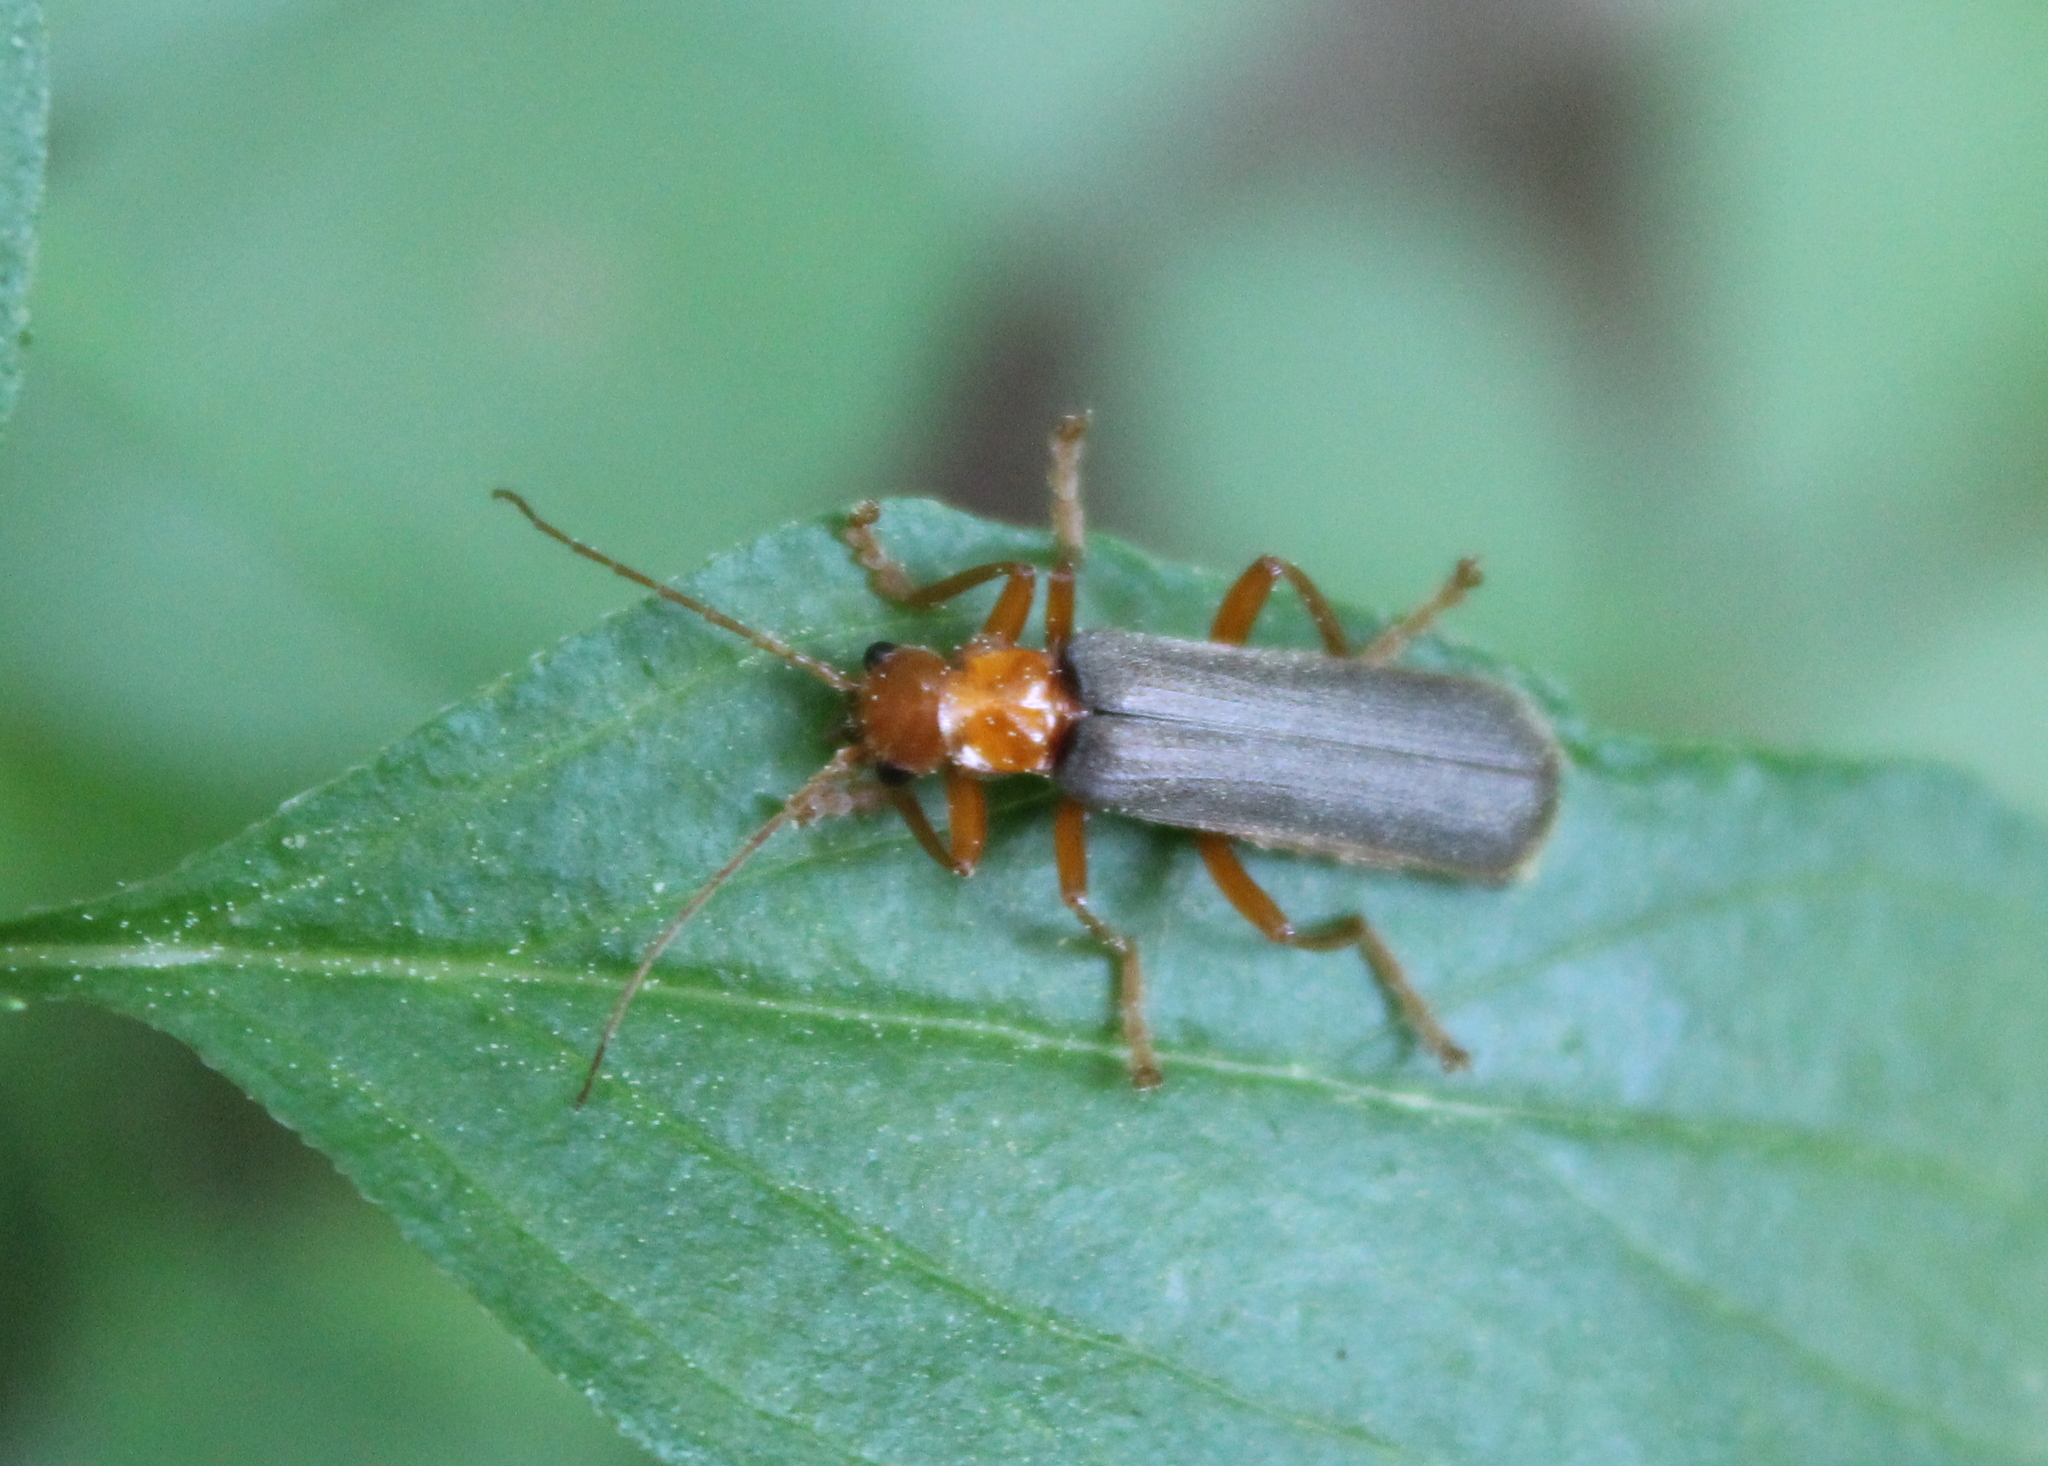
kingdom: Animalia
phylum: Arthropoda
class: Insecta
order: Coleoptera
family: Cantharidae
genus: Pacificanthia
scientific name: Pacificanthia rotundicollis
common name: Brown leatherwing beetle
